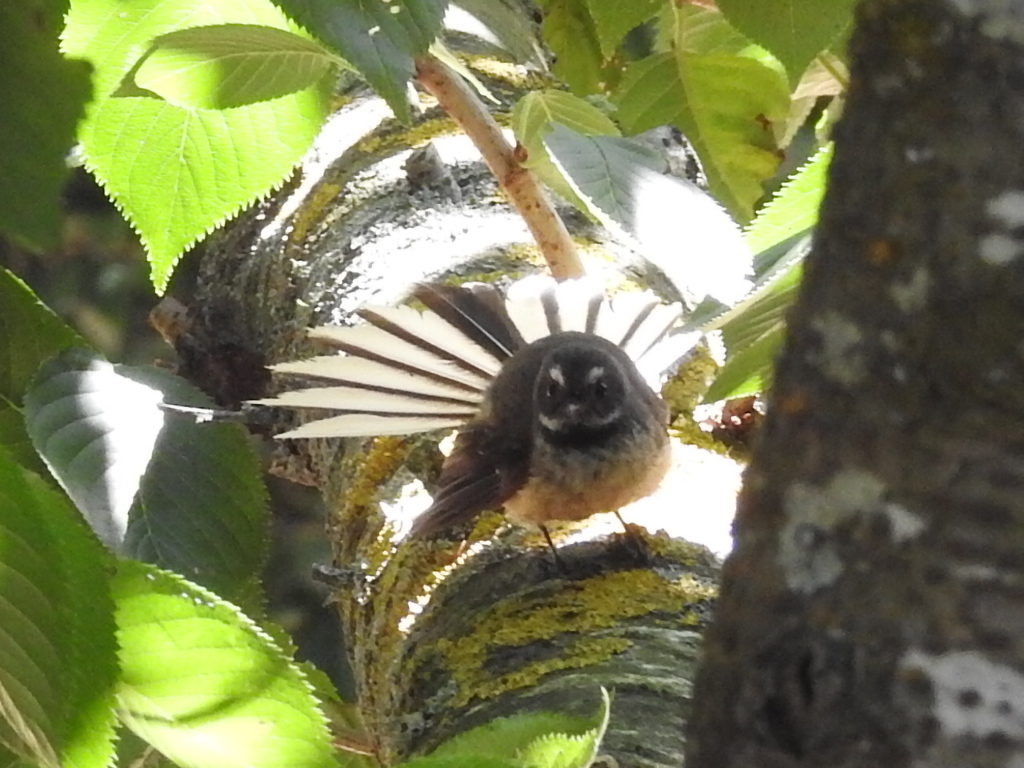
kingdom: Animalia
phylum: Chordata
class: Aves
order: Passeriformes
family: Rhipiduridae
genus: Rhipidura
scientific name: Rhipidura fuliginosa
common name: New zealand fantail
